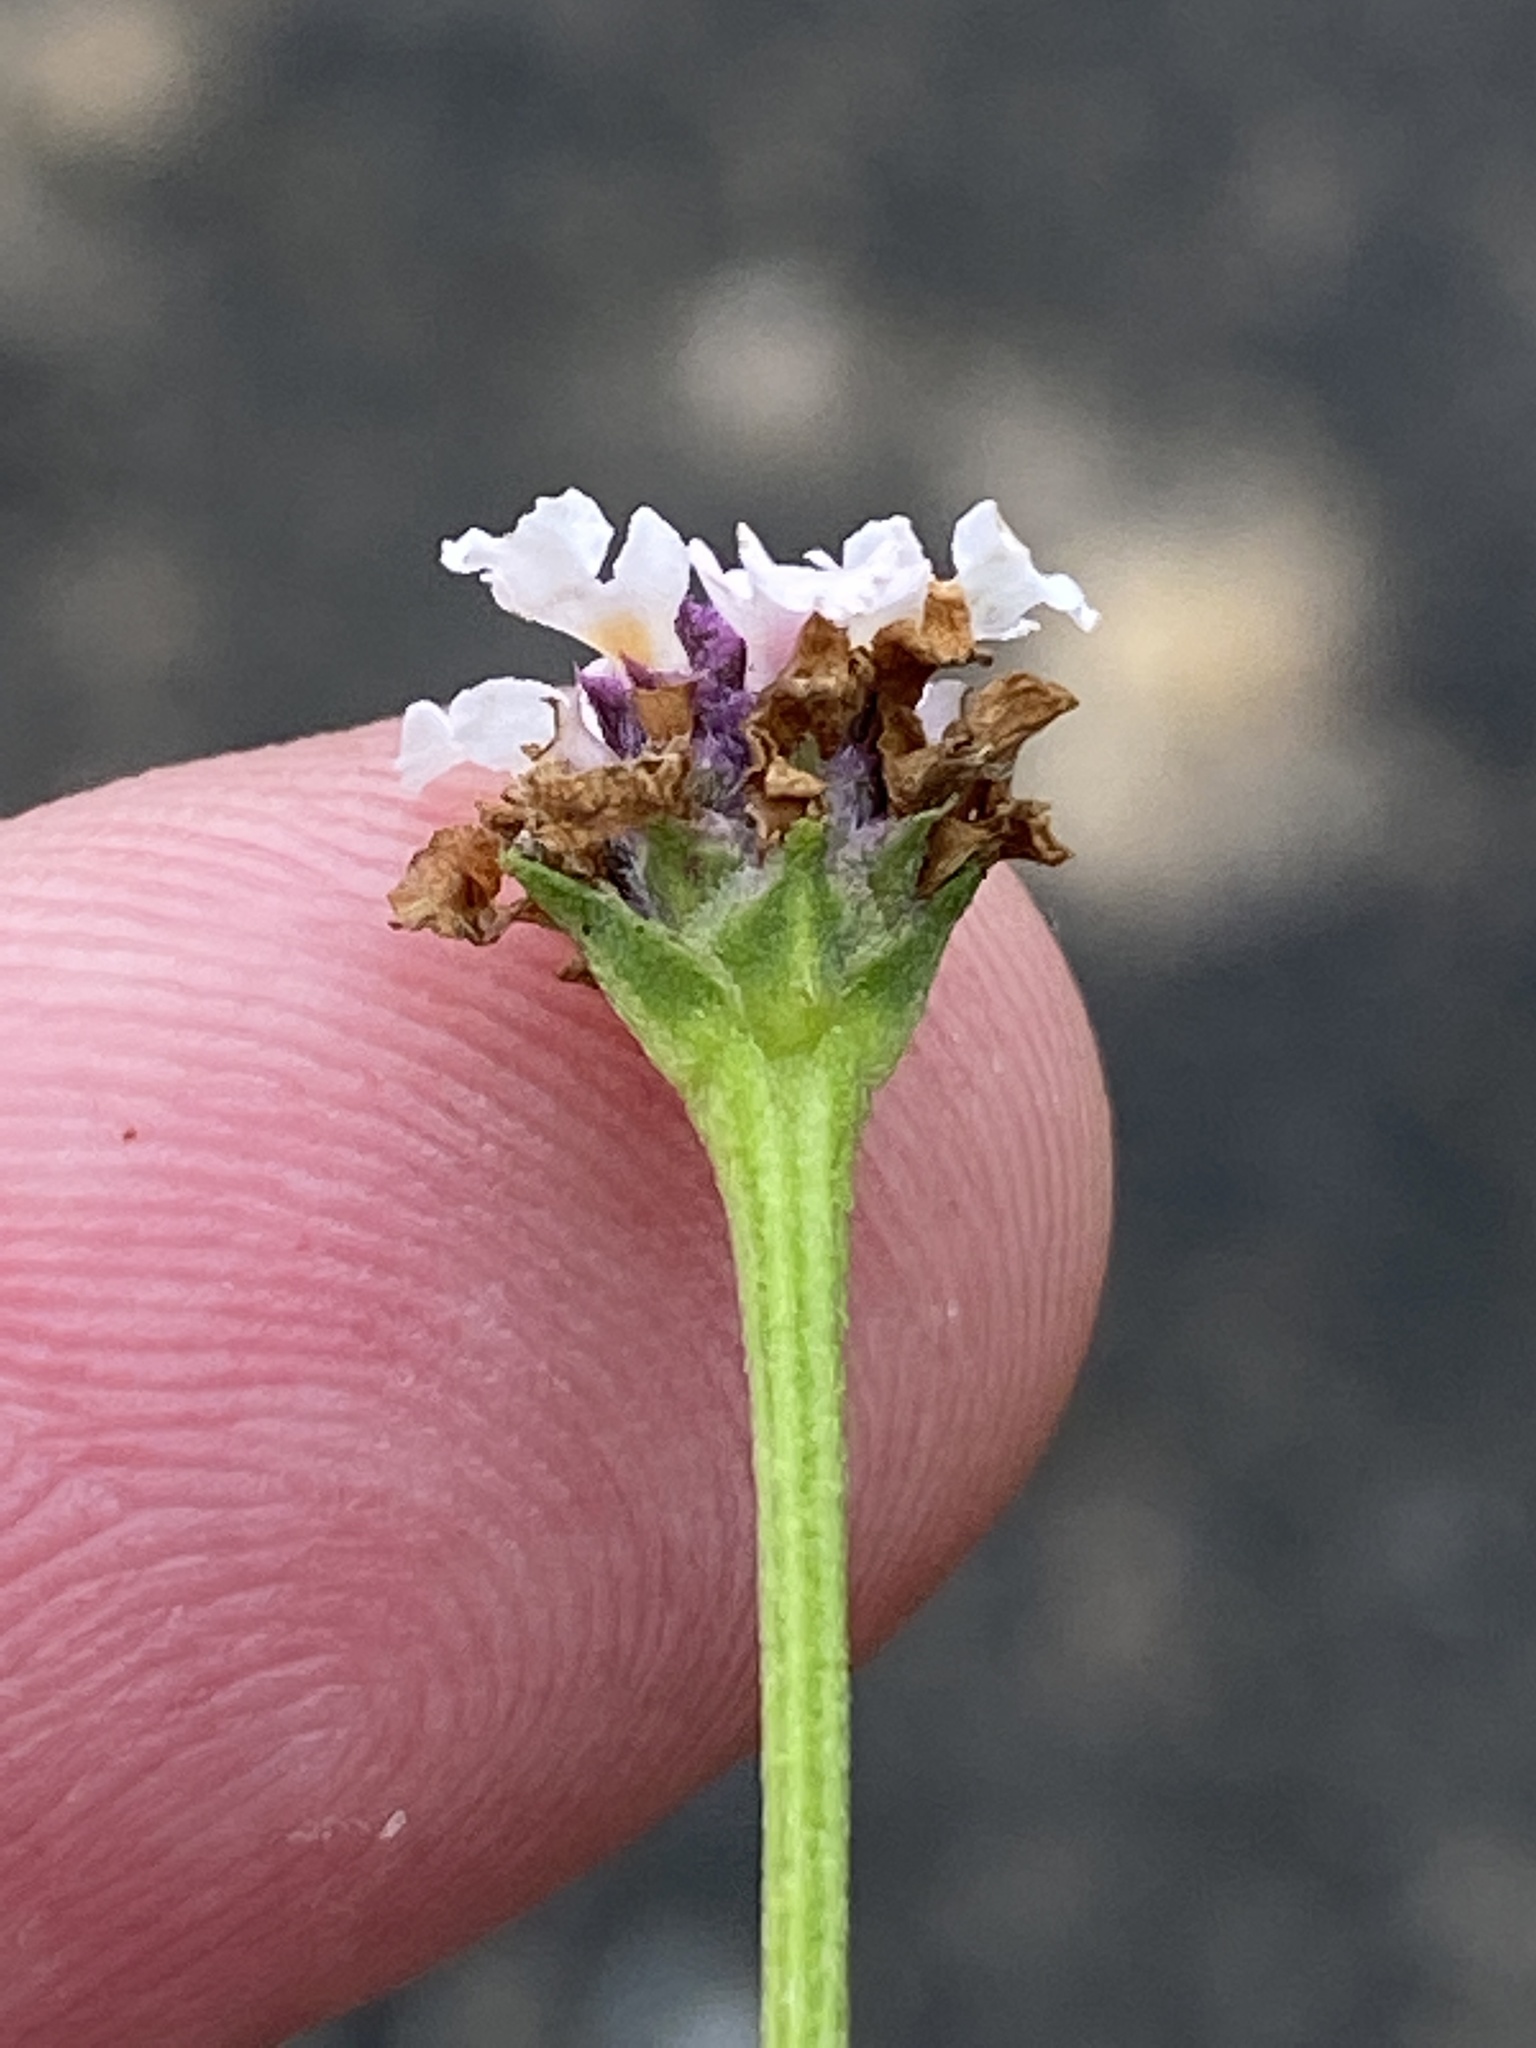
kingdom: Plantae
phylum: Tracheophyta
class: Magnoliopsida
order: Lamiales
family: Verbenaceae
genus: Phyla
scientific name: Phyla nodiflora
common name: Frogfruit
